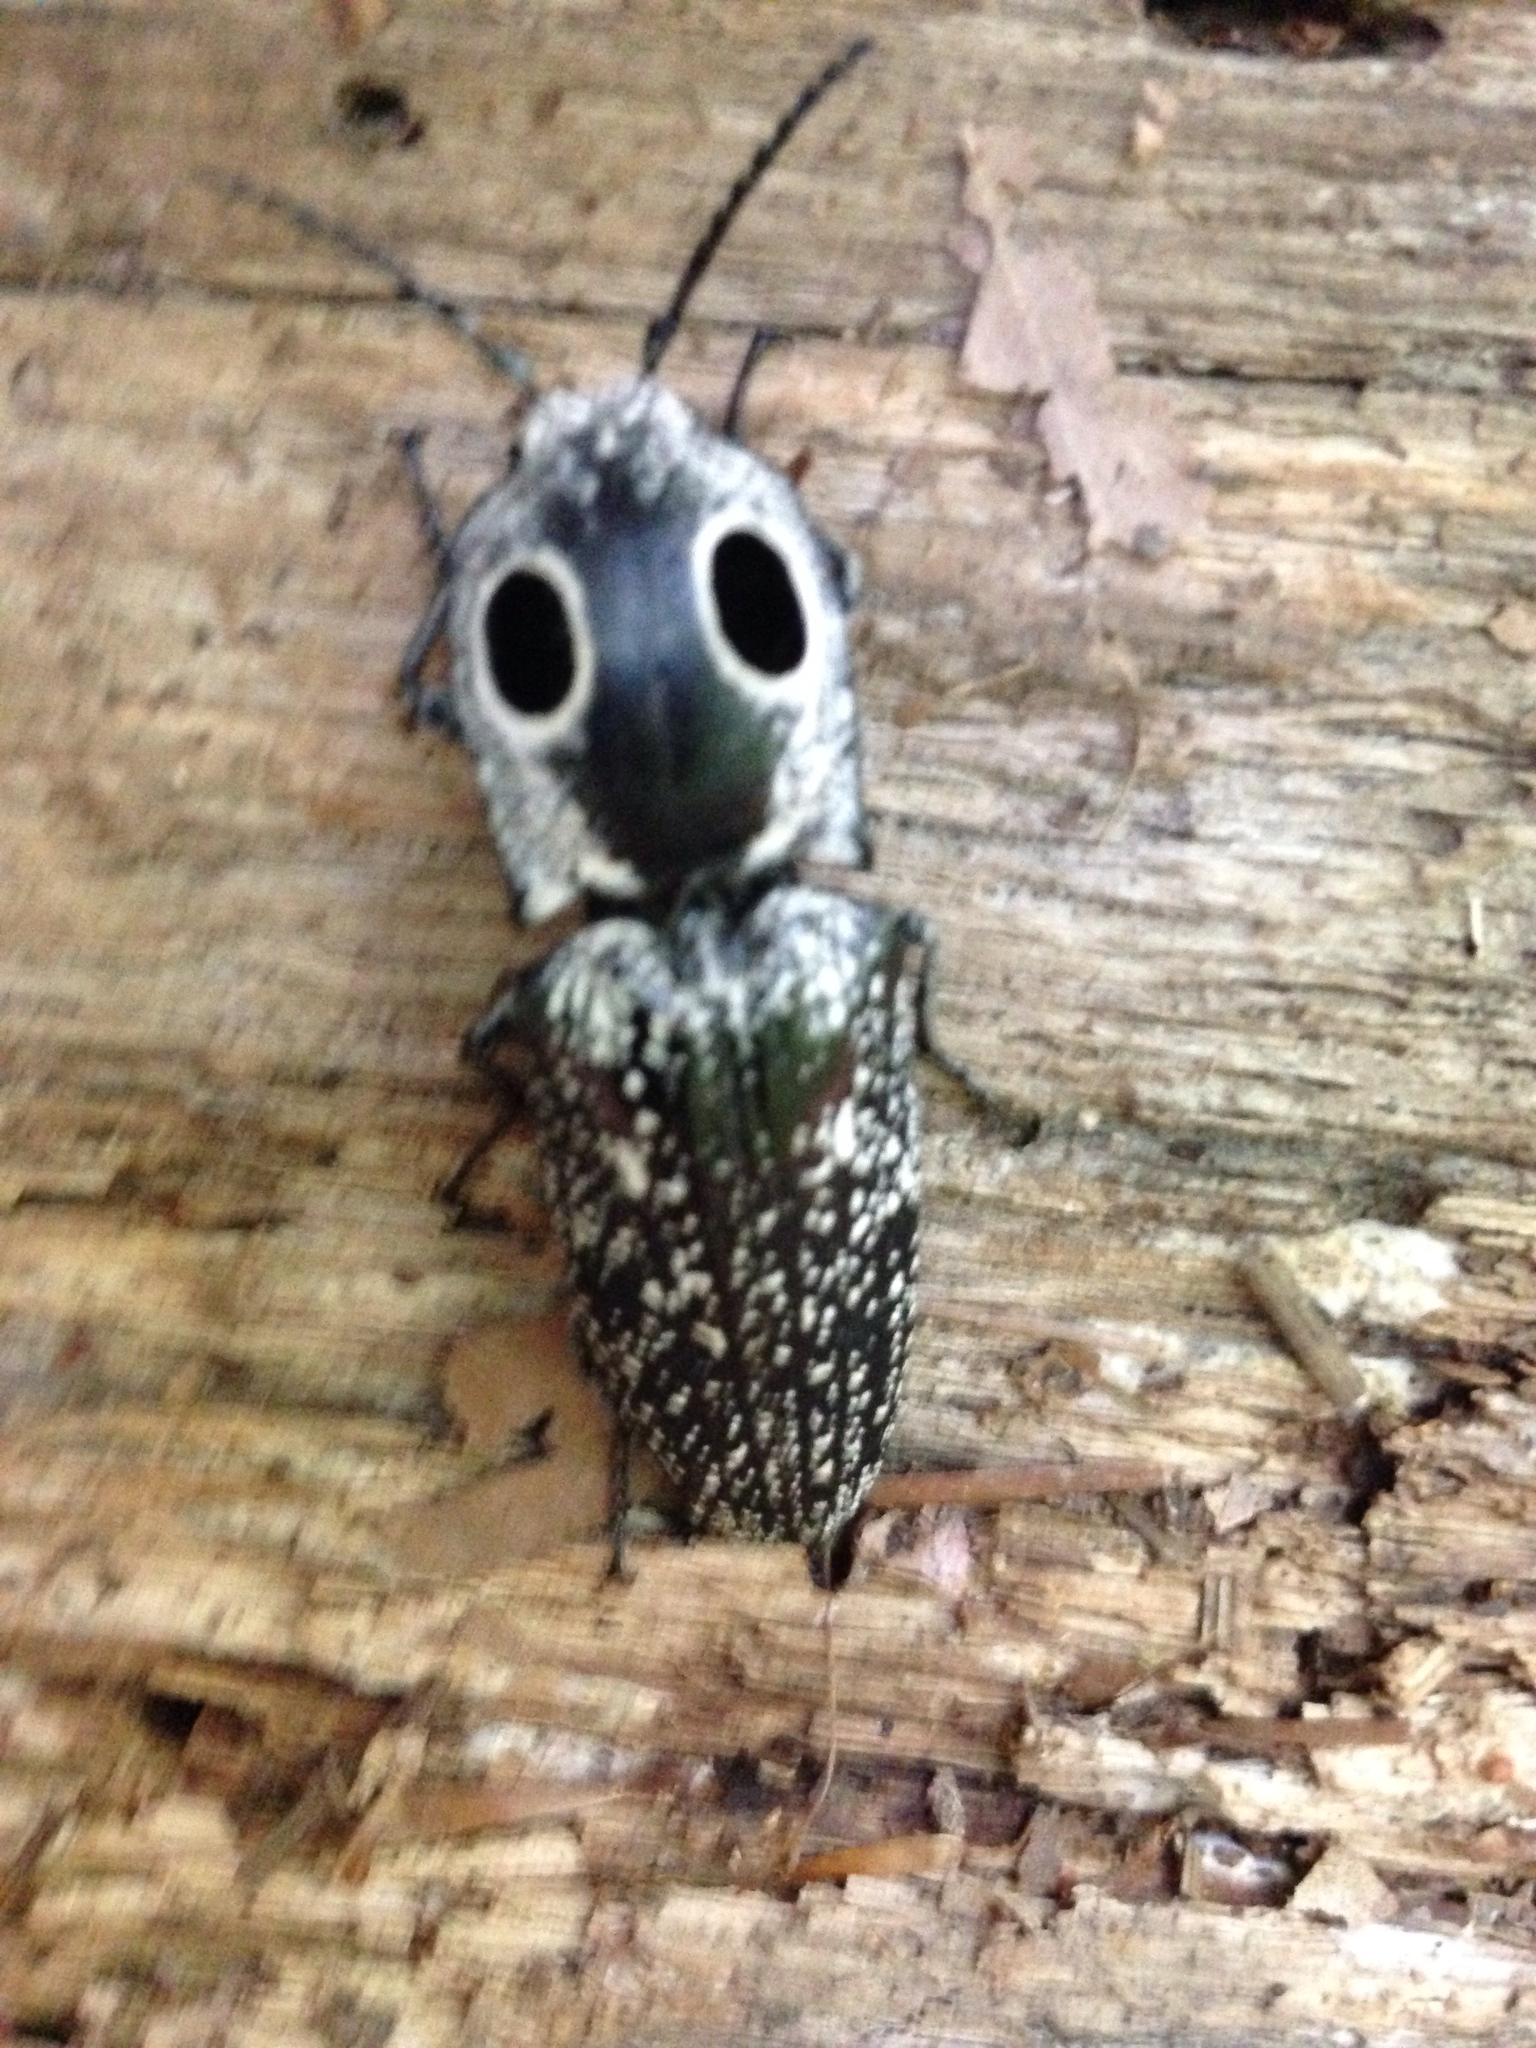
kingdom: Animalia
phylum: Arthropoda
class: Insecta
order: Coleoptera
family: Elateridae
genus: Alaus
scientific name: Alaus oculatus
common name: Eastern eyed click beetle
